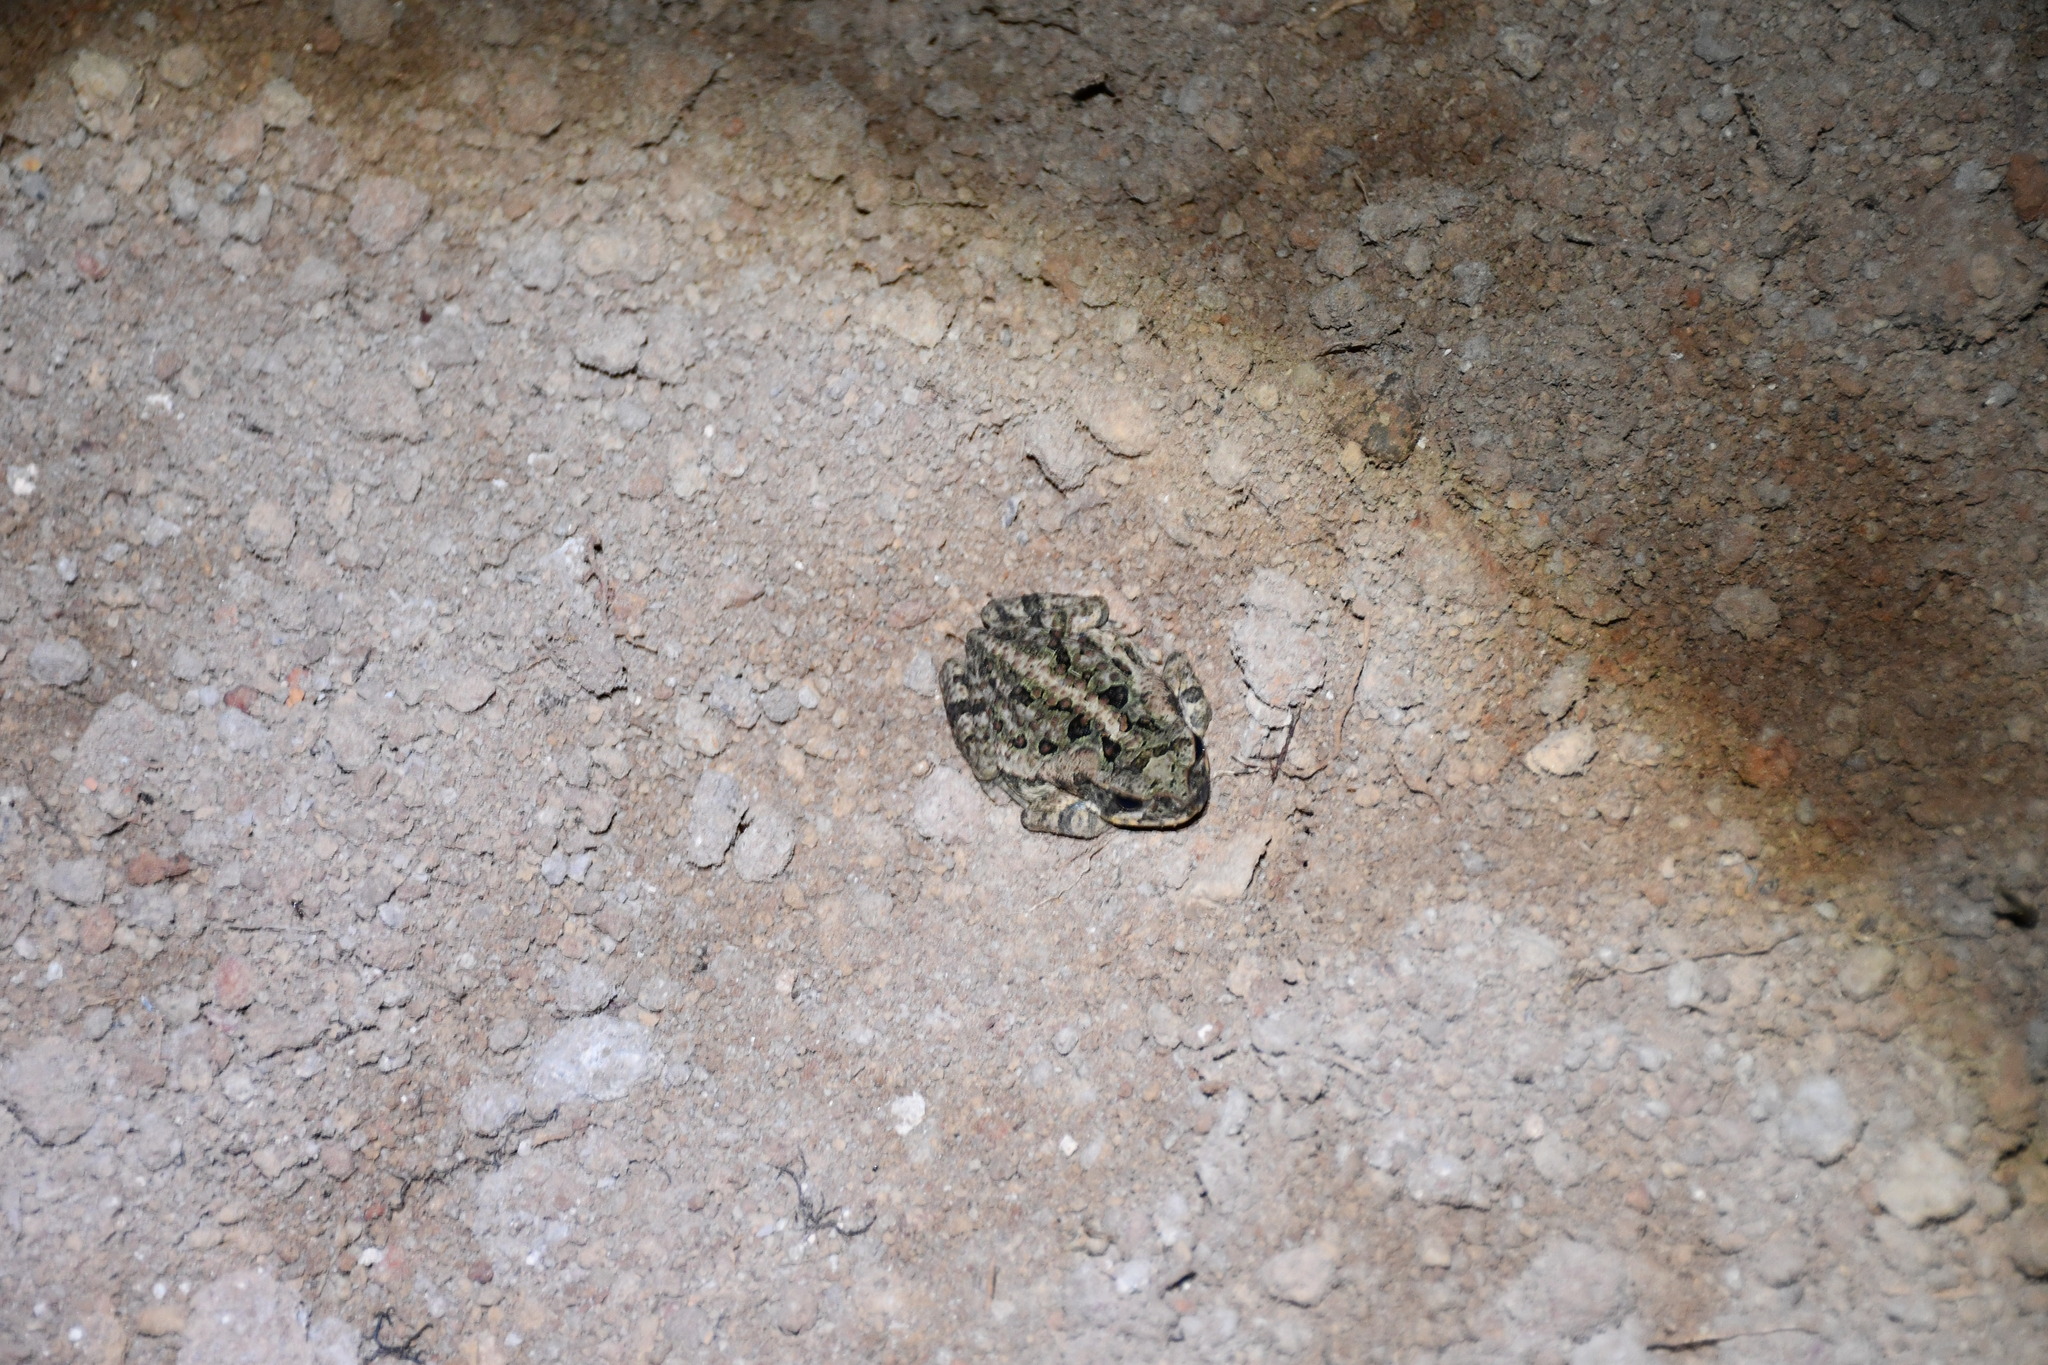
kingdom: Animalia
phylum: Chordata
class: Amphibia
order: Anura
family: Bufonidae
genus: Rhinella
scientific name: Rhinella marina
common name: Cane toad
